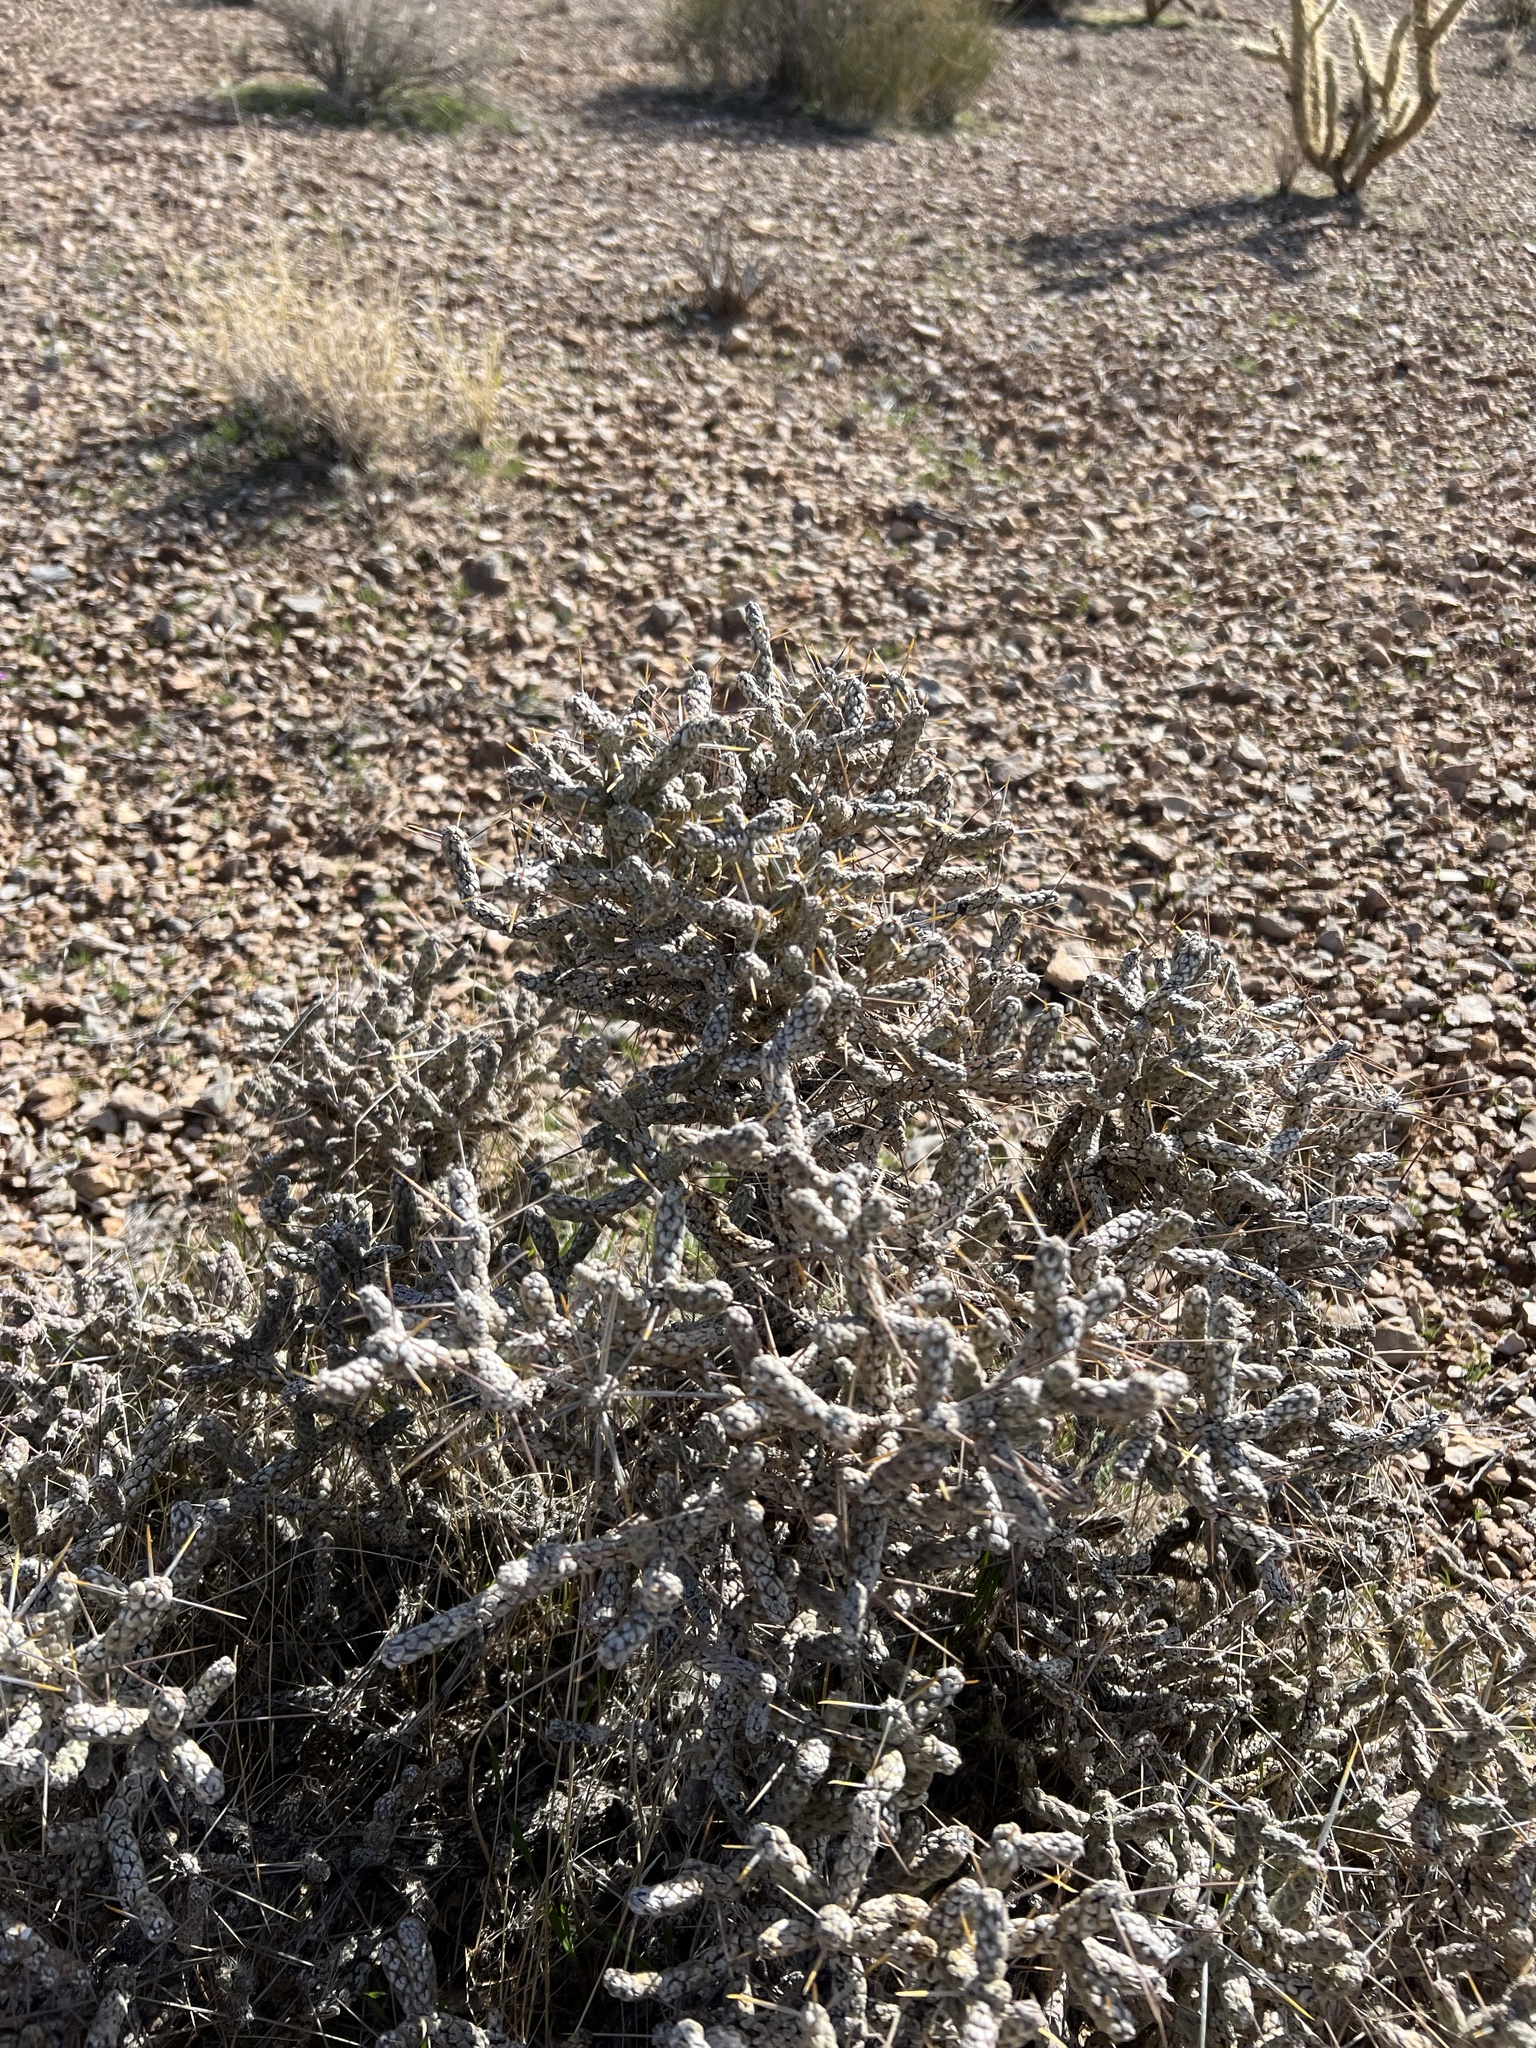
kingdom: Plantae
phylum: Tracheophyta
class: Magnoliopsida
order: Caryophyllales
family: Cactaceae
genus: Cylindropuntia
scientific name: Cylindropuntia ramosissima
